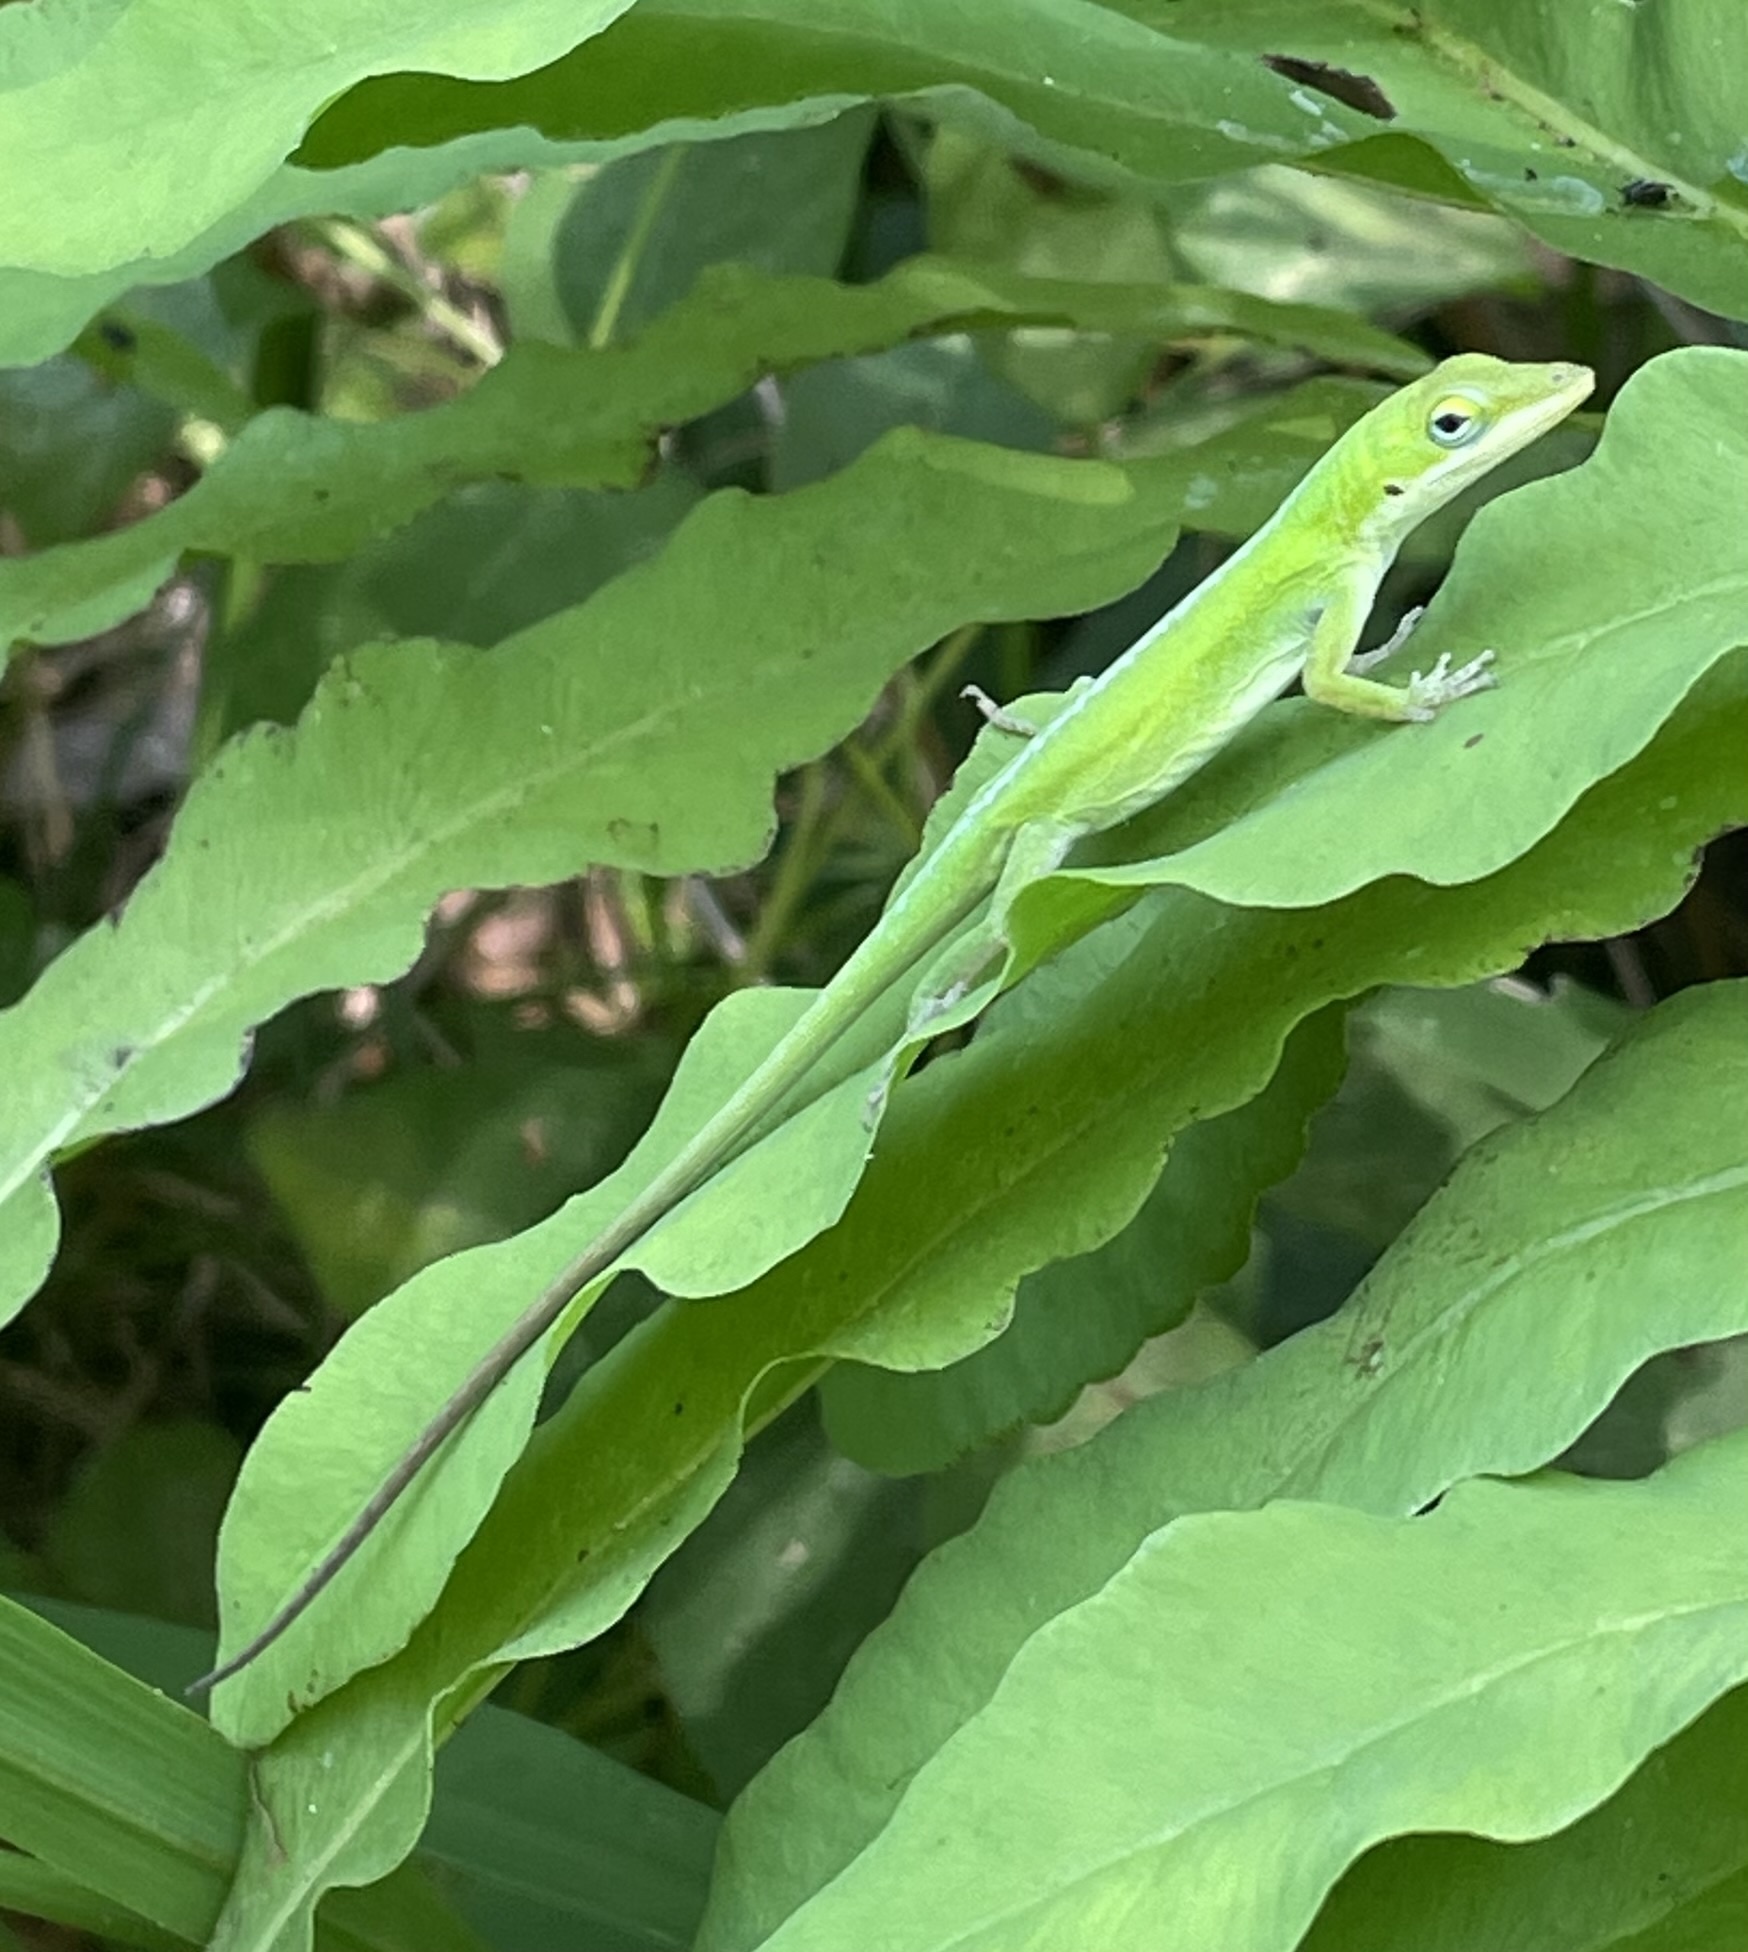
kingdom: Animalia
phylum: Chordata
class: Squamata
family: Dactyloidae
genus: Anolis
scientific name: Anolis carolinensis
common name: Green anole
